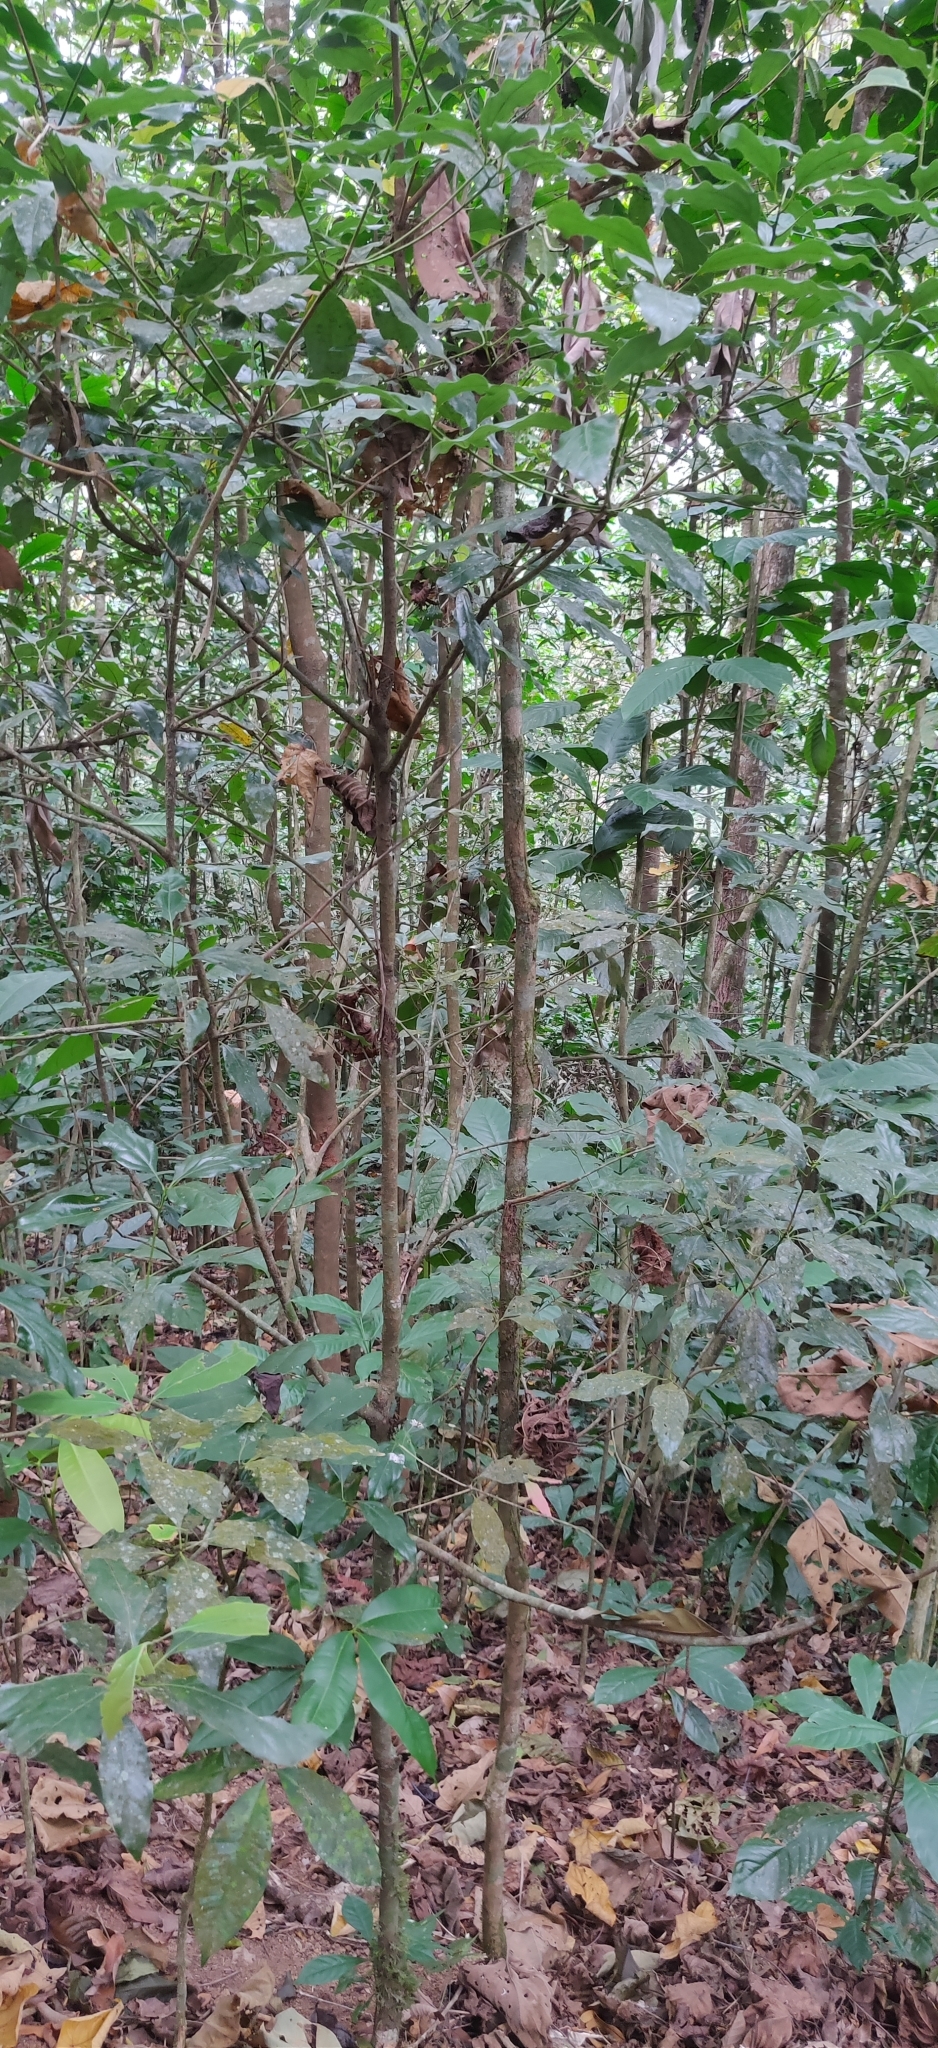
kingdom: Plantae
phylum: Tracheophyta
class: Magnoliopsida
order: Laurales
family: Lauraceae
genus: Neolitsea
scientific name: Neolitsea foliosa
